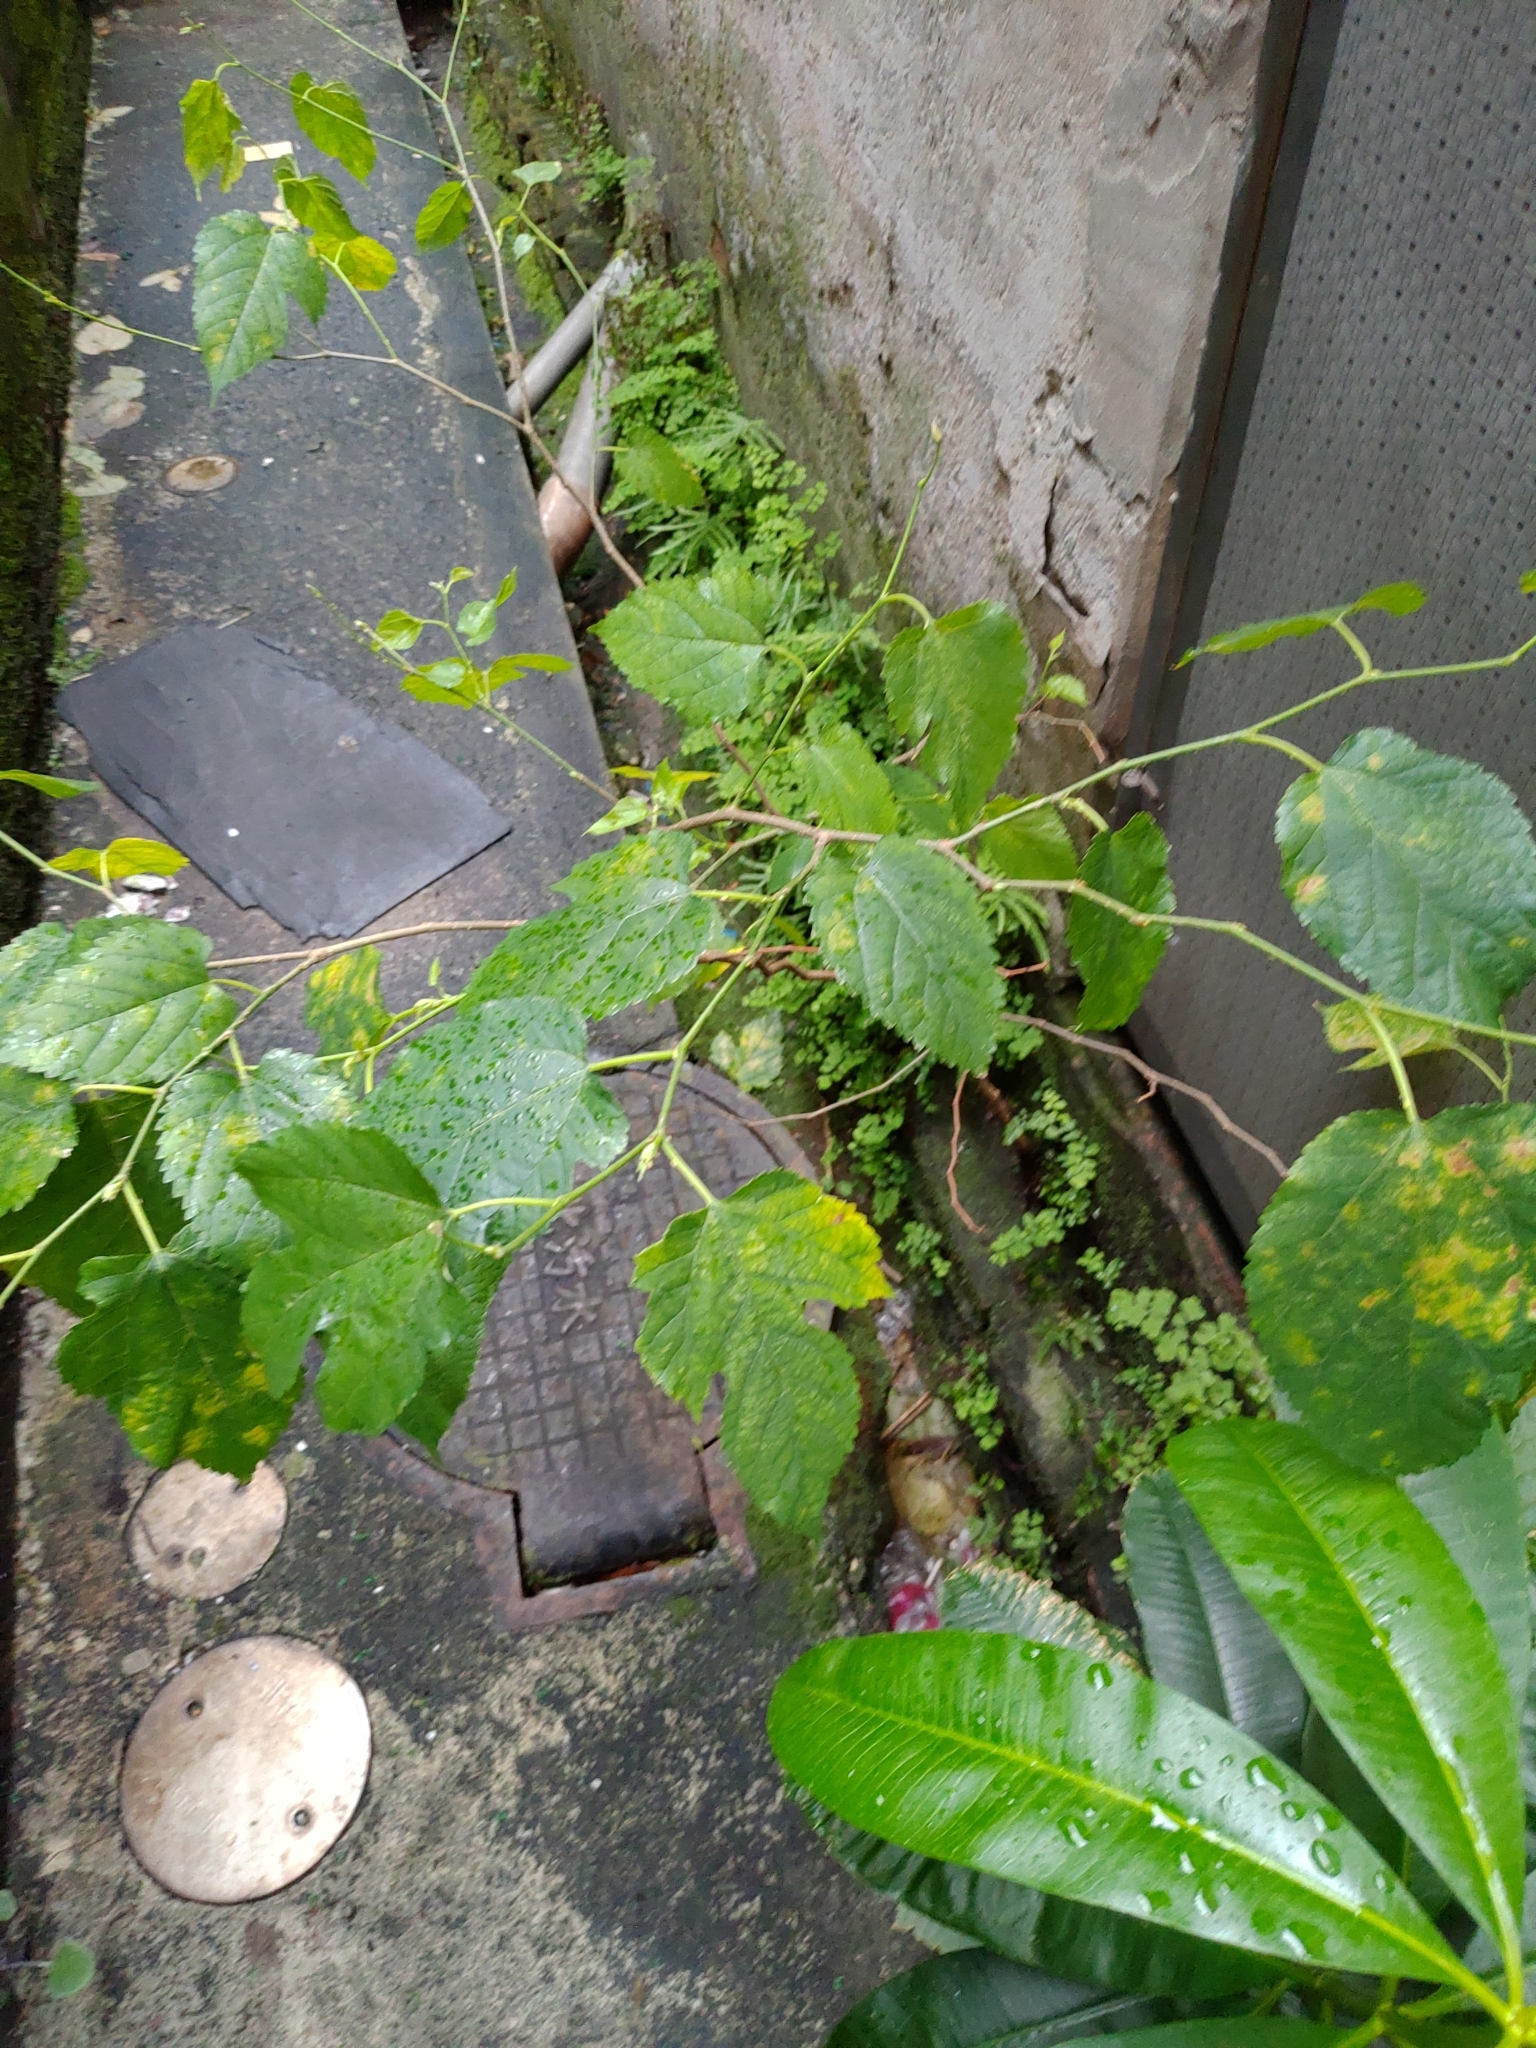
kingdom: Plantae
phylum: Tracheophyta
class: Magnoliopsida
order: Rosales
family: Moraceae
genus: Morus
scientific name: Morus indica
